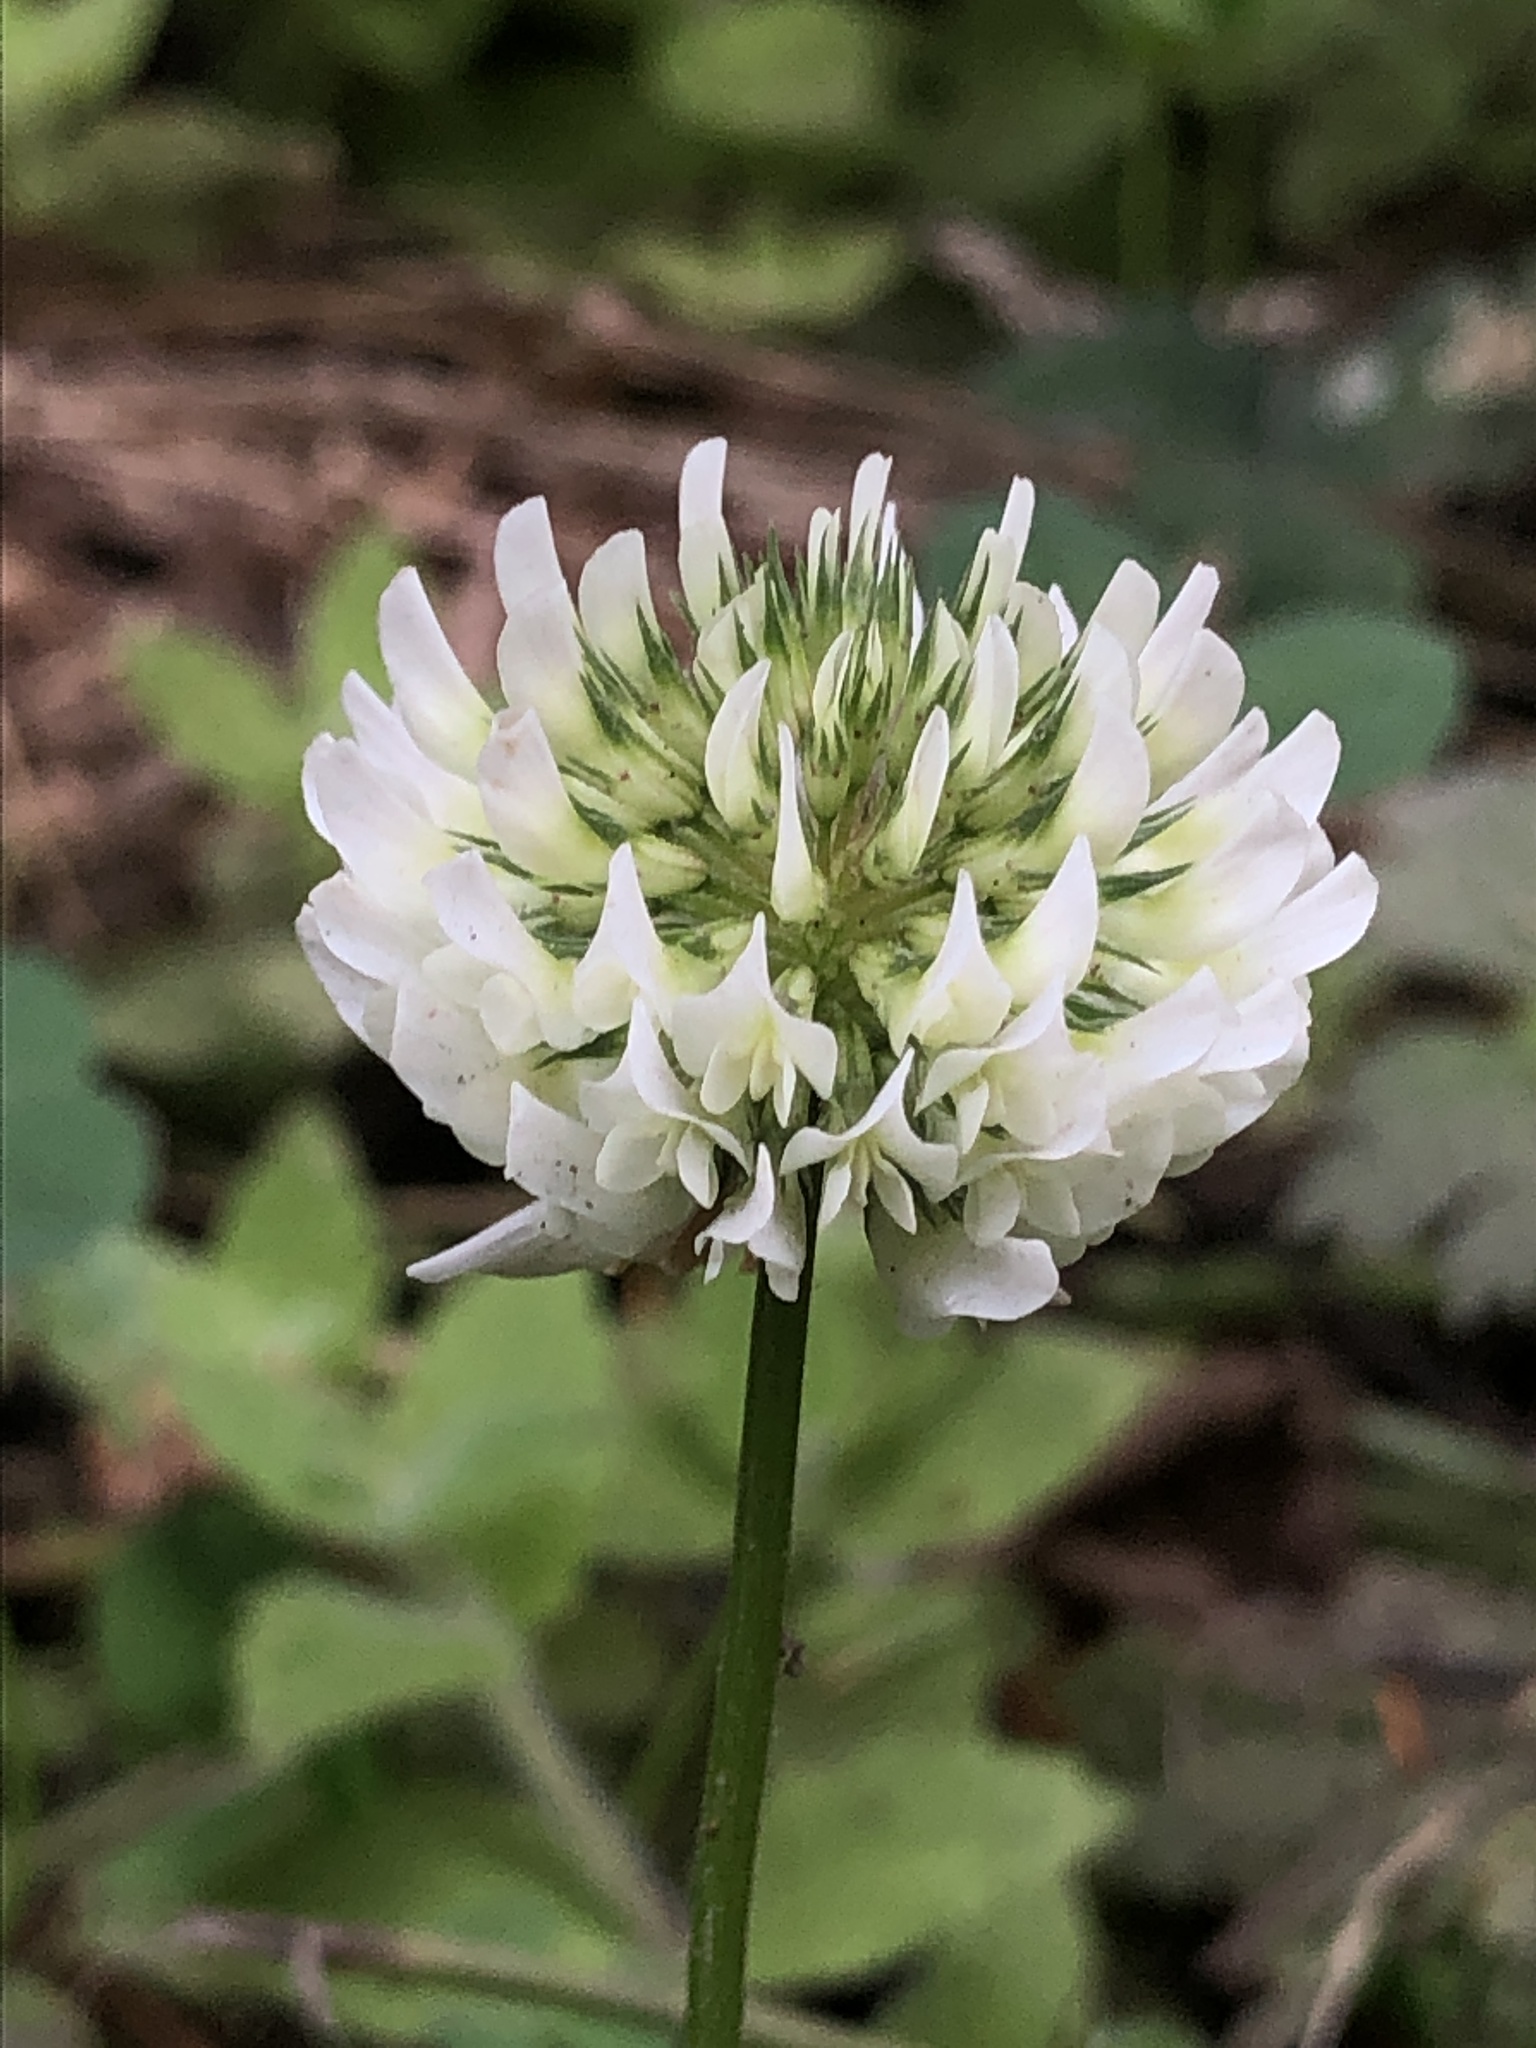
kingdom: Plantae
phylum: Tracheophyta
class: Magnoliopsida
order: Fabales
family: Fabaceae
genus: Trifolium
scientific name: Trifolium repens
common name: White clover
